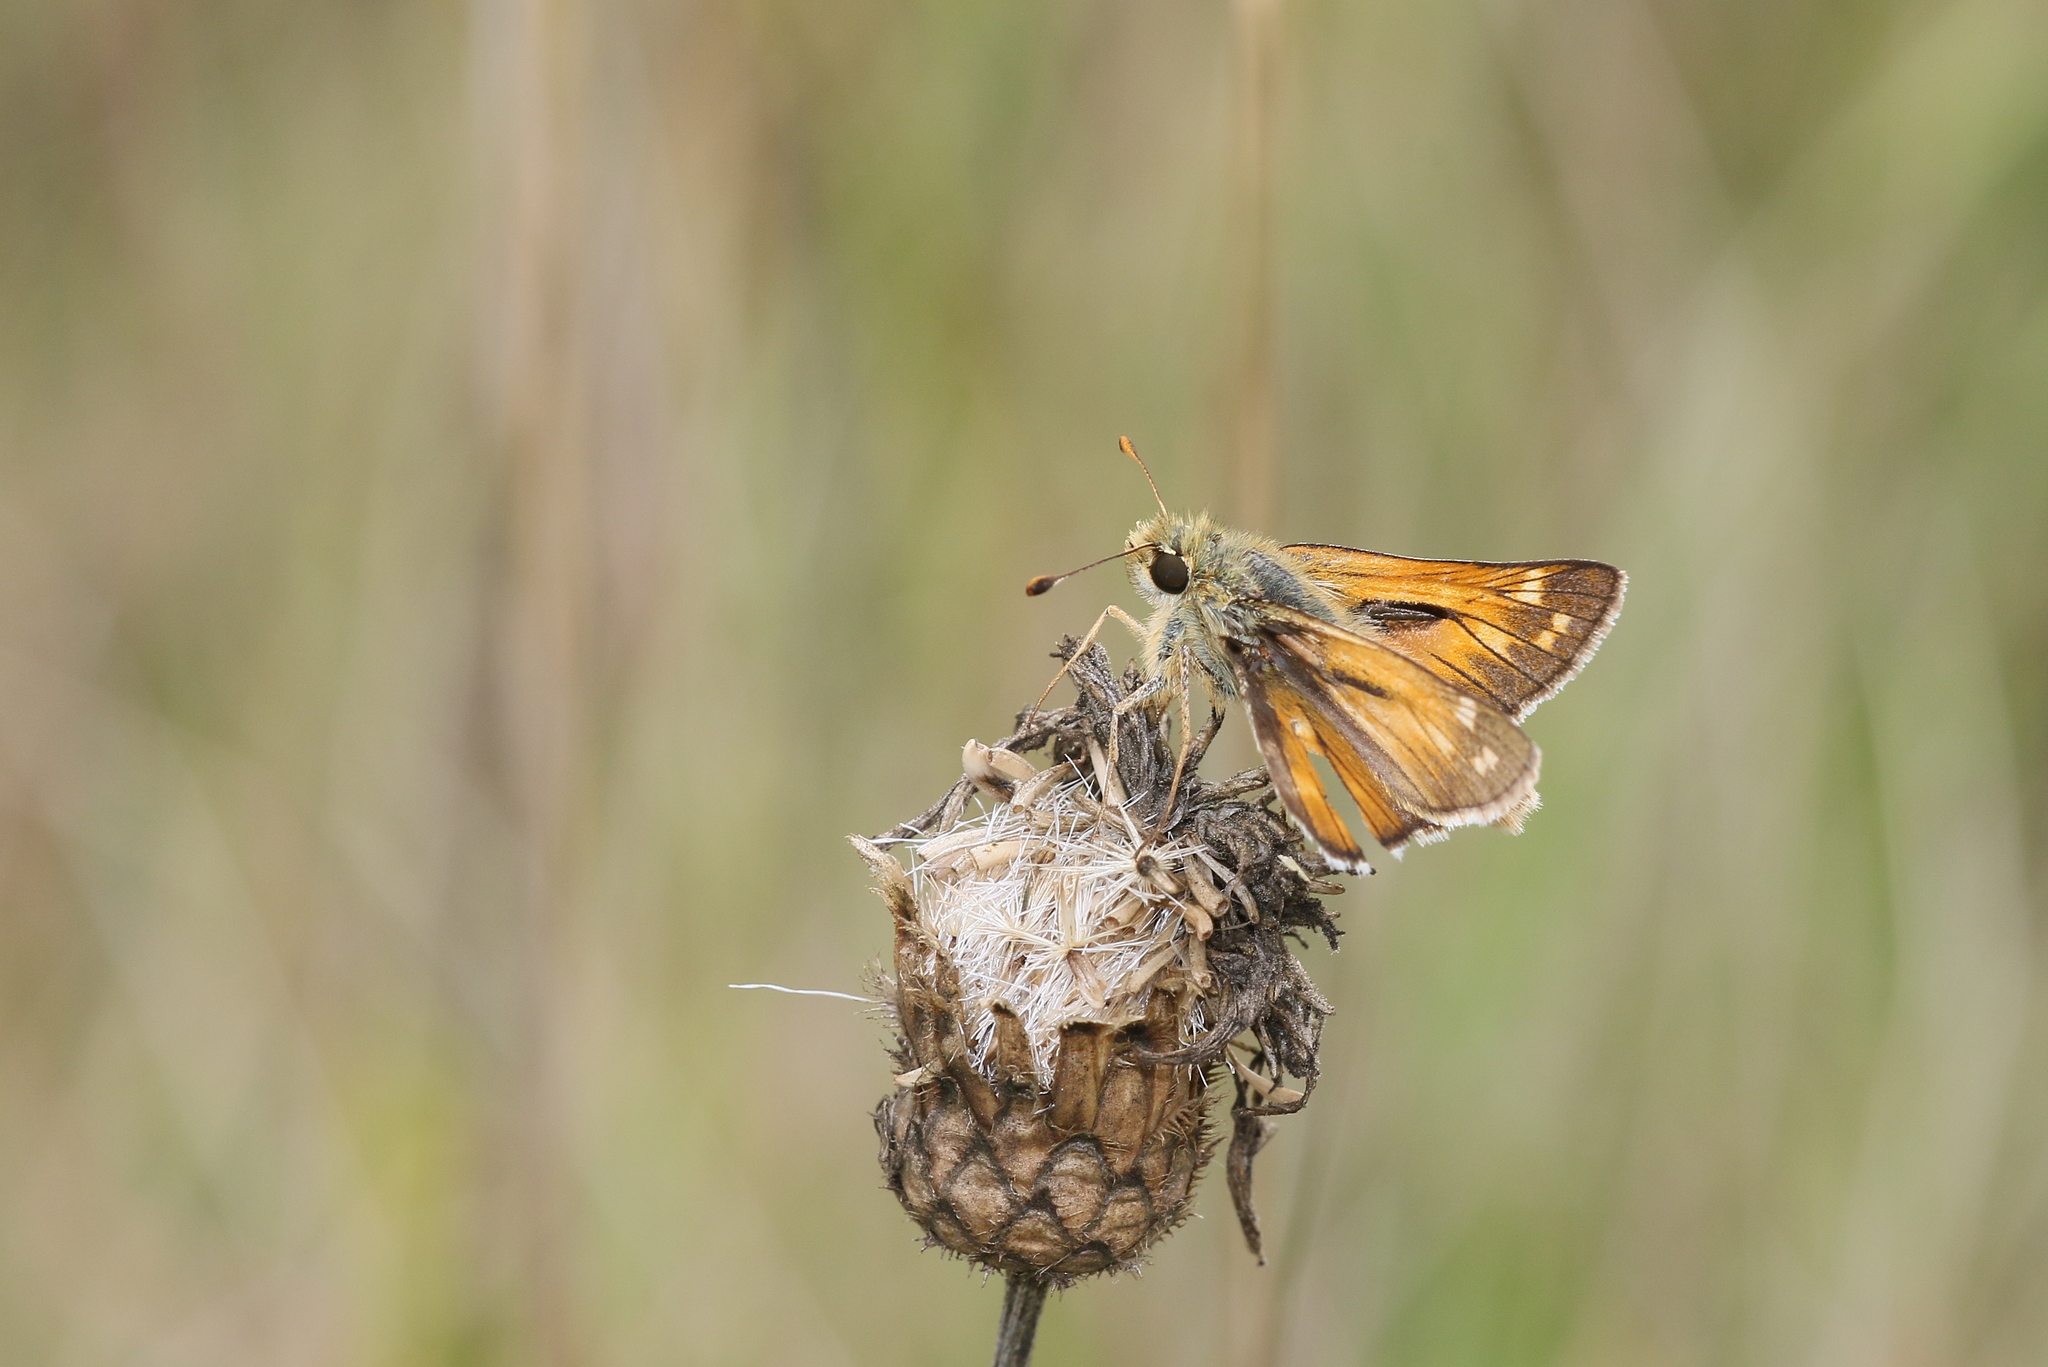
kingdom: Animalia
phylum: Arthropoda
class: Insecta
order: Lepidoptera
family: Hesperiidae
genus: Hesperia
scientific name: Hesperia comma
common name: Common branded skipper
